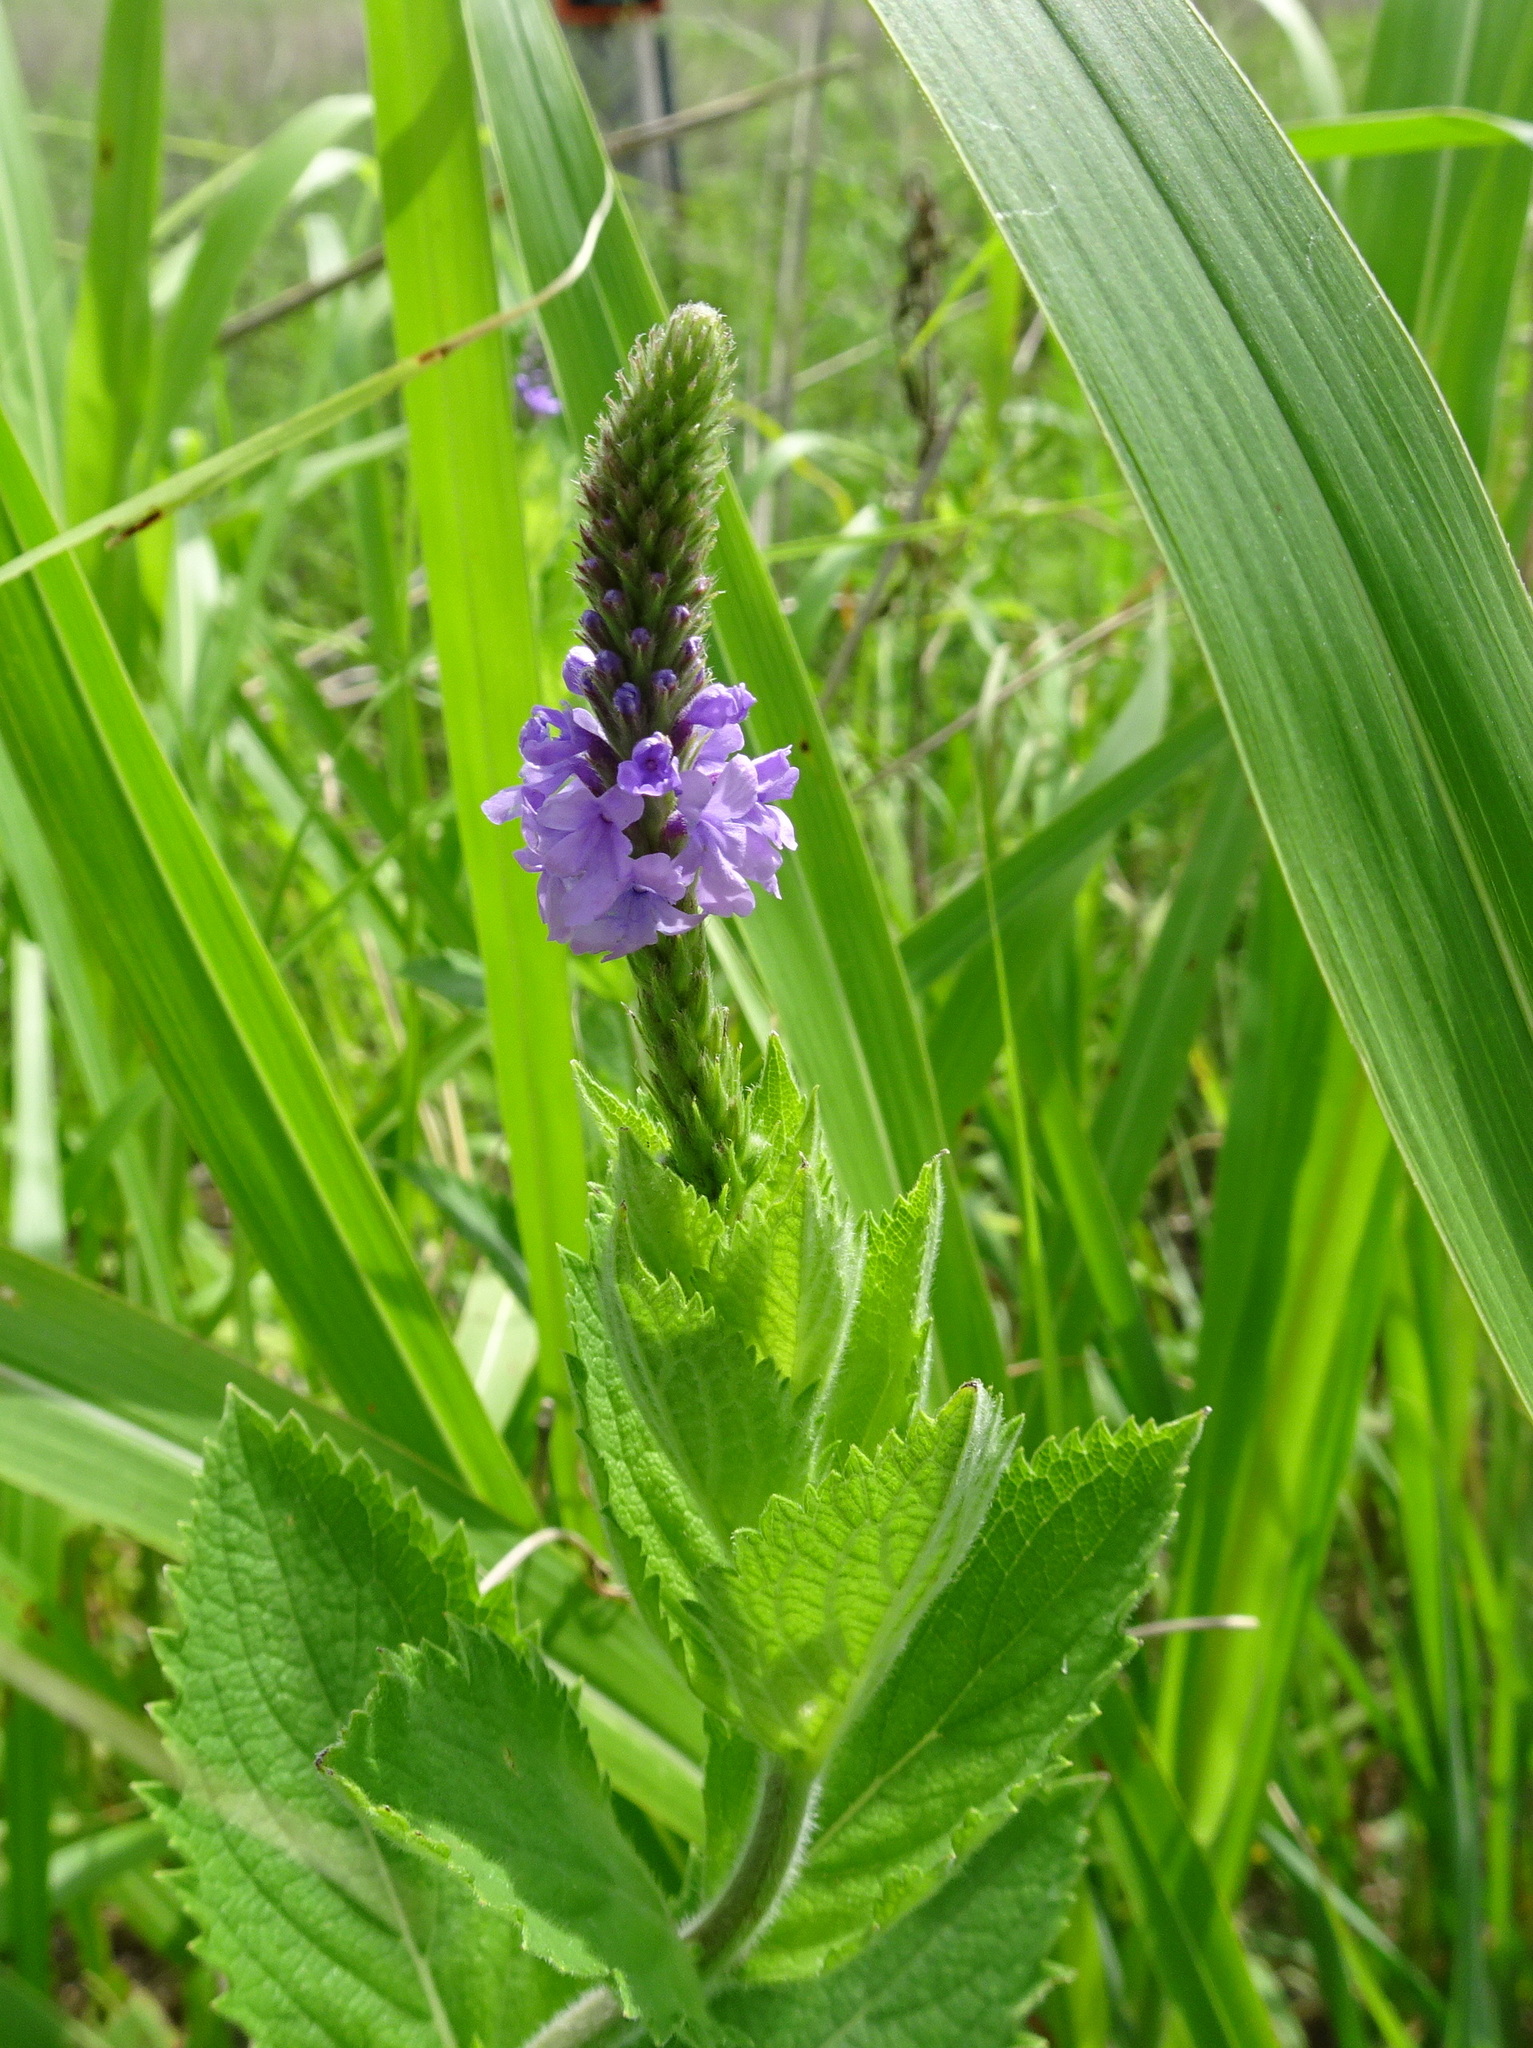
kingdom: Plantae
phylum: Tracheophyta
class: Magnoliopsida
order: Lamiales
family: Verbenaceae
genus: Verbena
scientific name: Verbena stricta
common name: Hoary vervain
